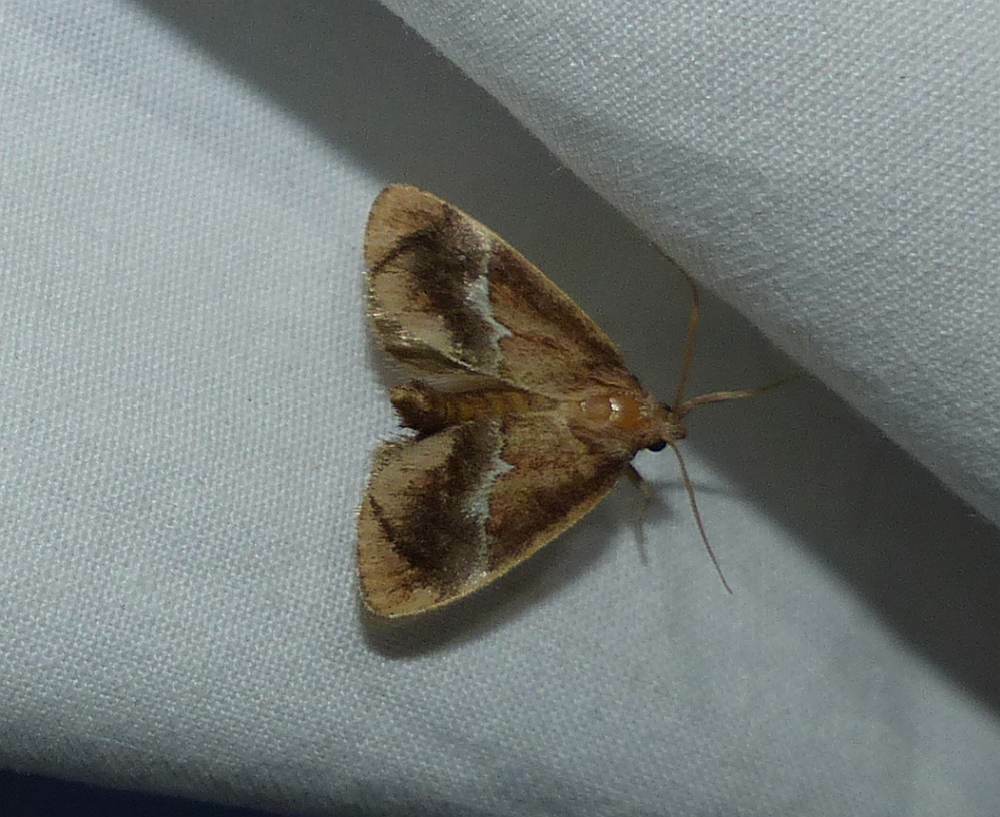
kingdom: Animalia
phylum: Arthropoda
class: Insecta
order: Lepidoptera
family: Limacodidae
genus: Lithacodes
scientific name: Lithacodes fasciola
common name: Yellow-shouldered slug moth
